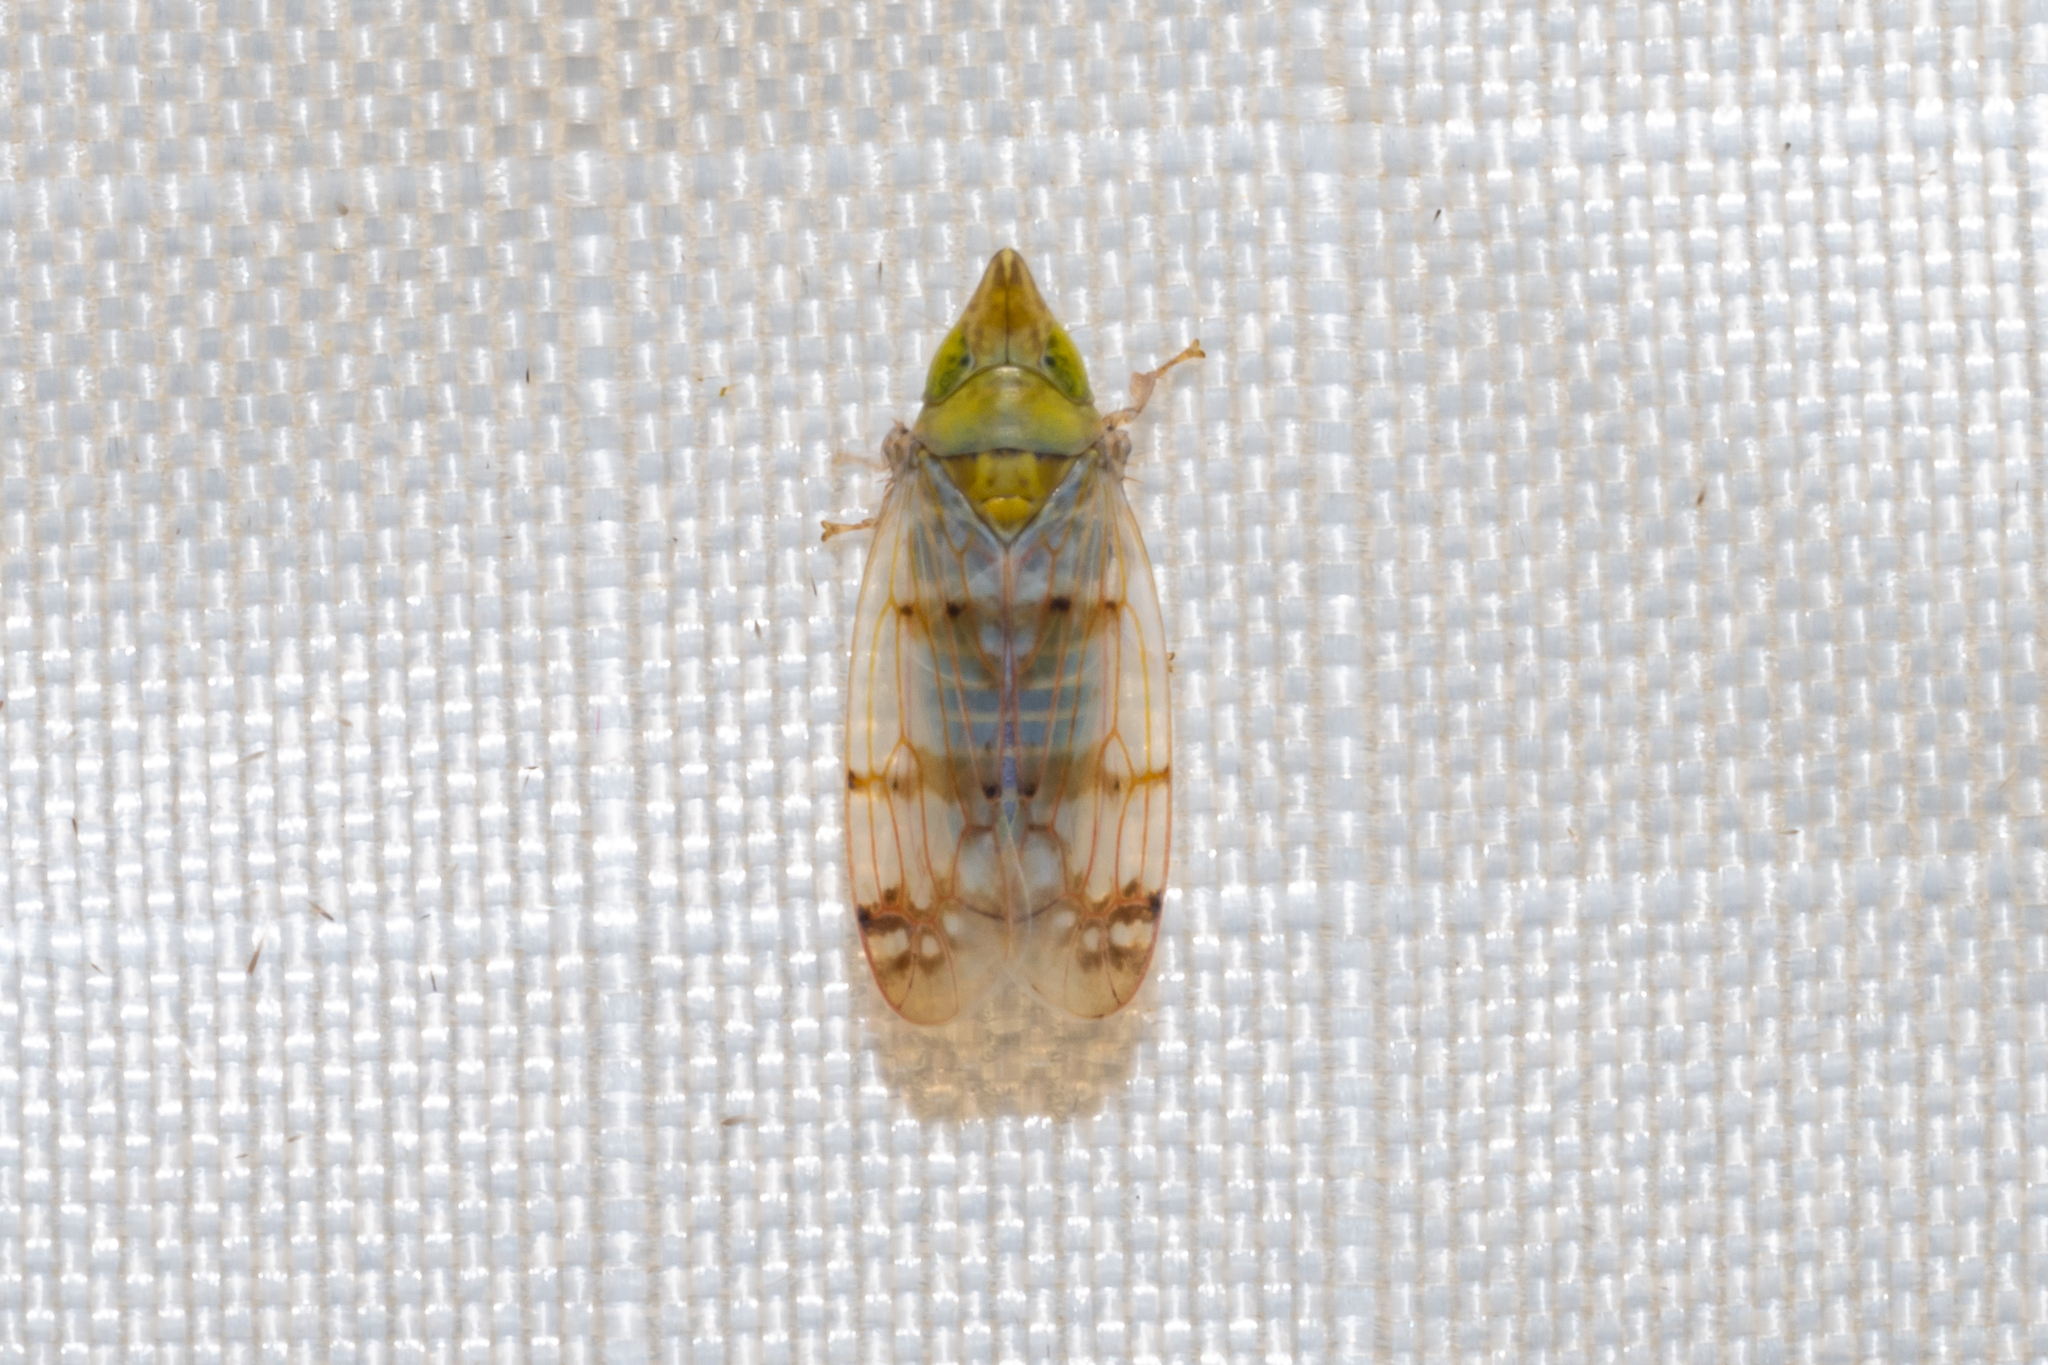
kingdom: Animalia
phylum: Arthropoda
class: Insecta
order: Hemiptera
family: Cicadellidae
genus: Japananus
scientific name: Japananus hyalinus
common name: The japanese maple leafhopper
